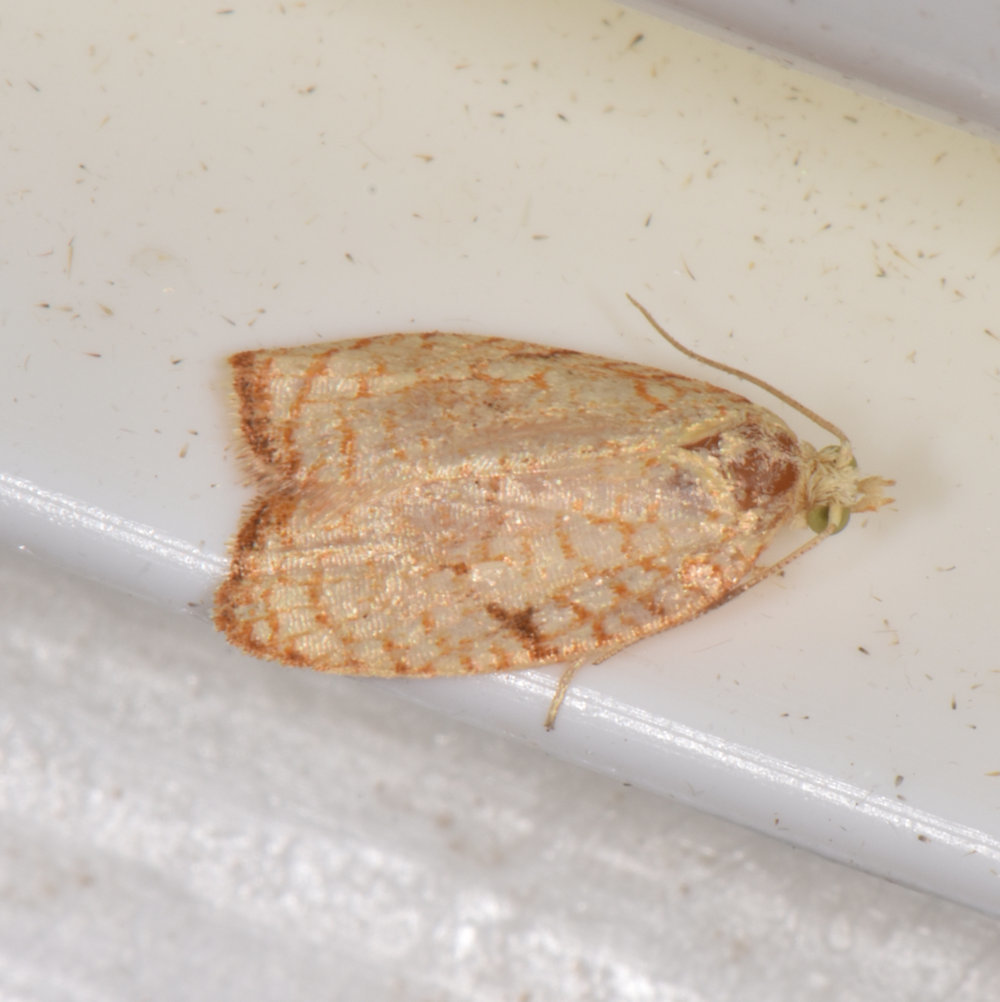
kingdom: Animalia
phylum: Arthropoda
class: Insecta
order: Lepidoptera
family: Tortricidae
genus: Acleris
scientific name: Acleris forsskaleana
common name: Maple button
